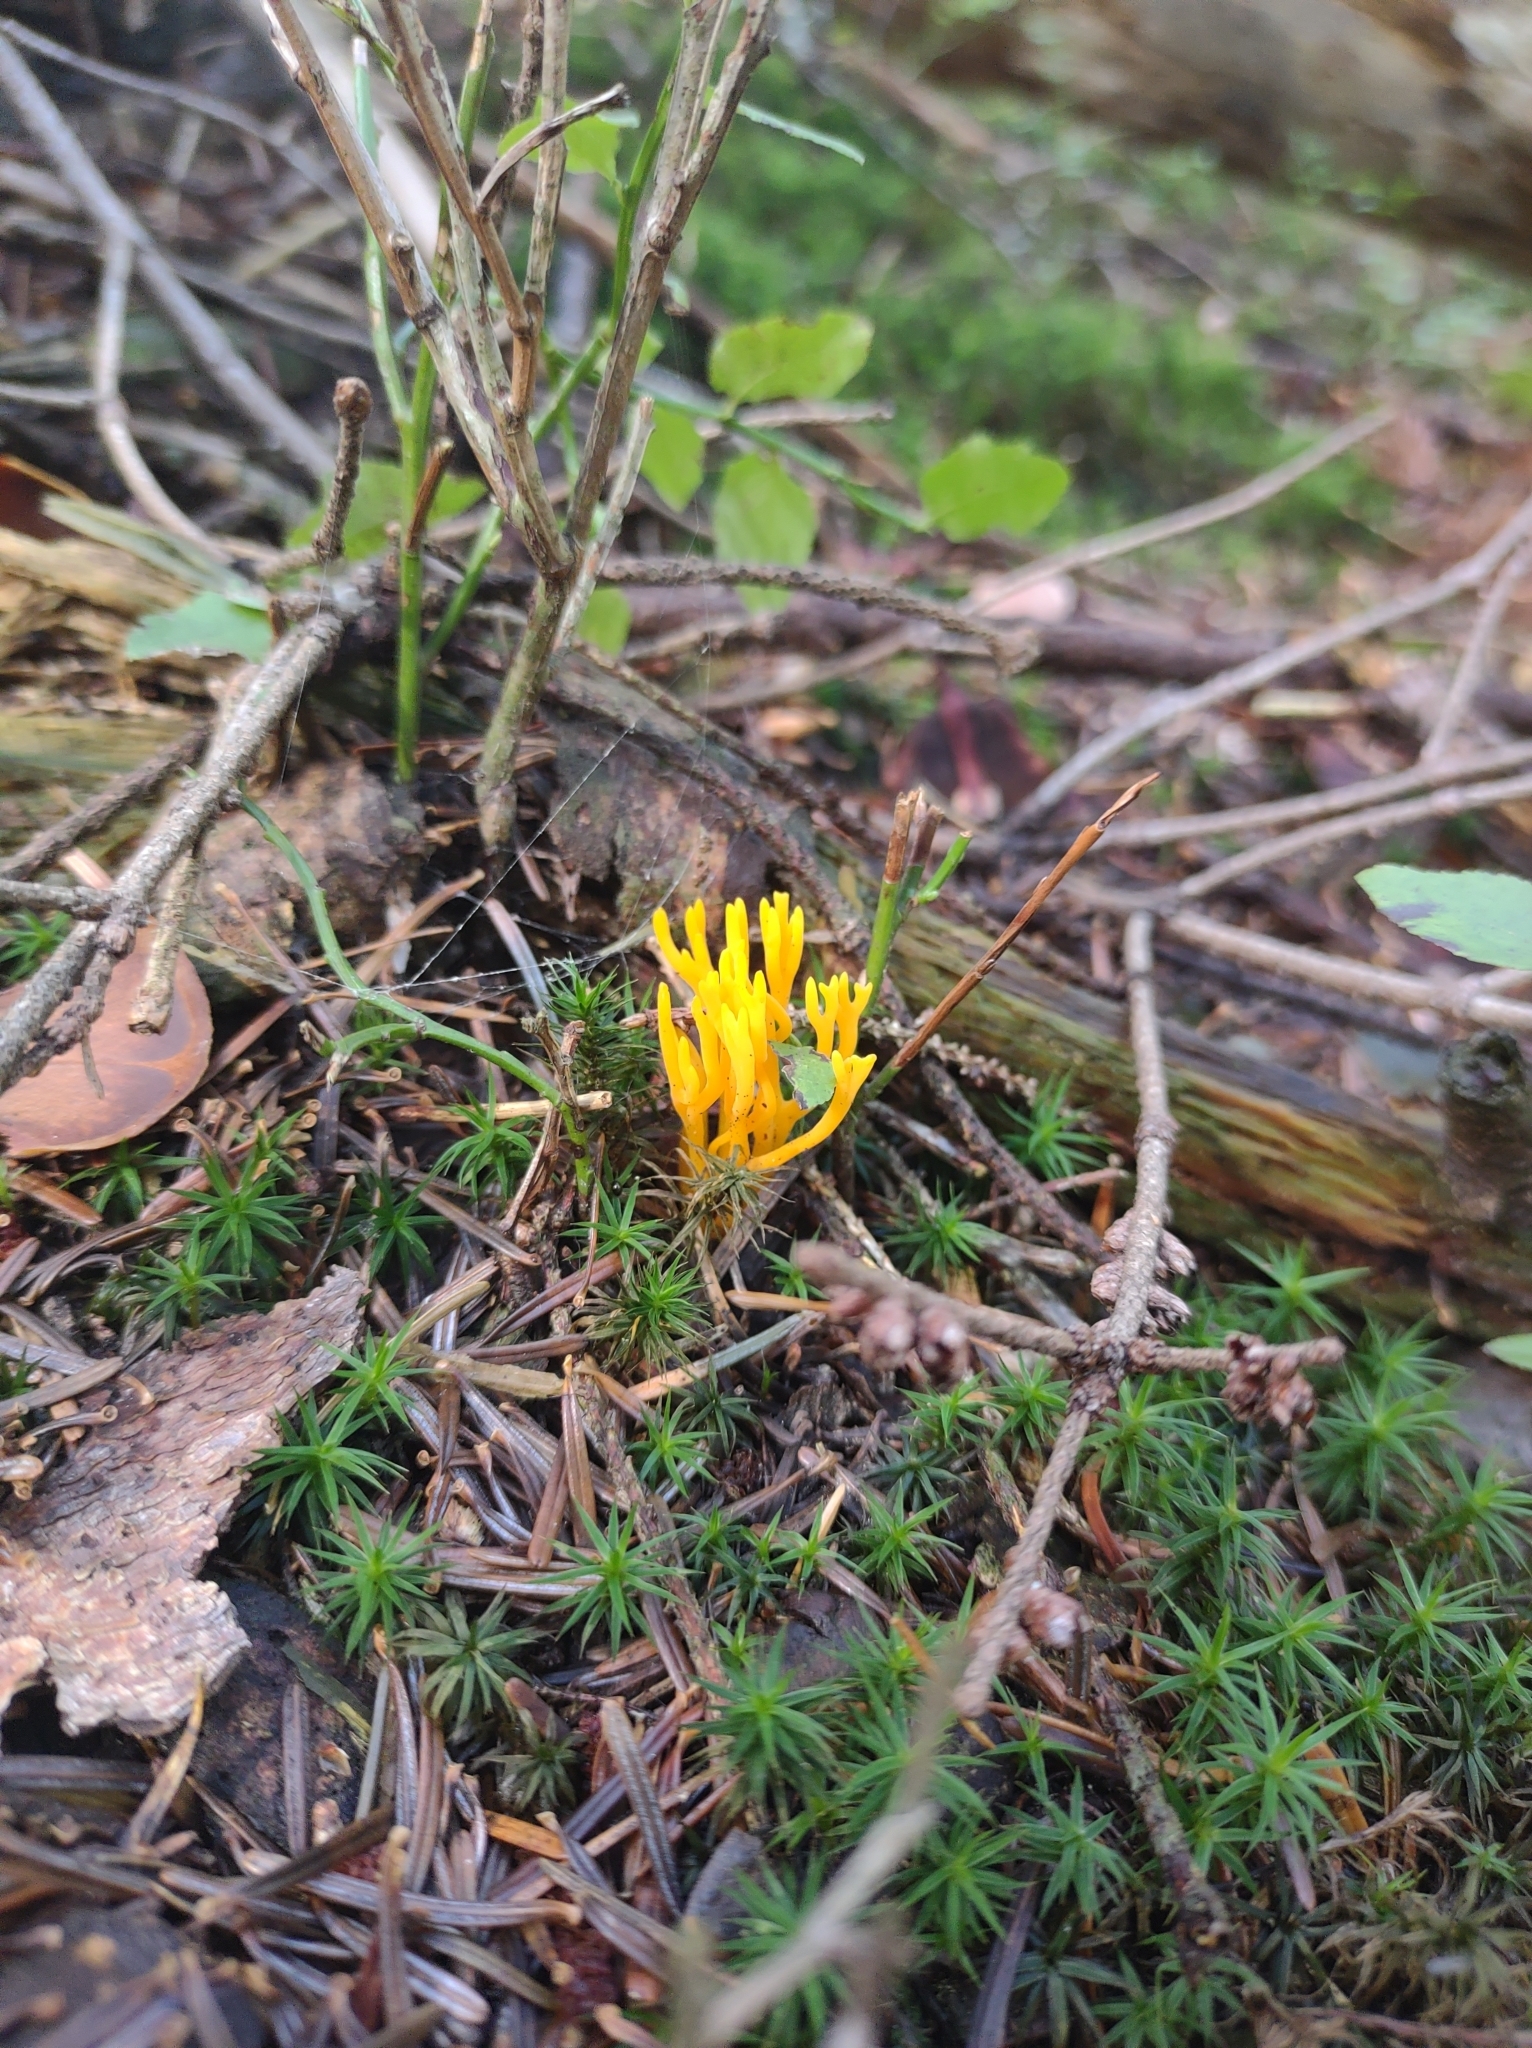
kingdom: Fungi
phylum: Basidiomycota
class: Dacrymycetes
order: Dacrymycetales
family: Dacrymycetaceae
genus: Calocera
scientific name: Calocera viscosa
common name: Yellow stagshorn
